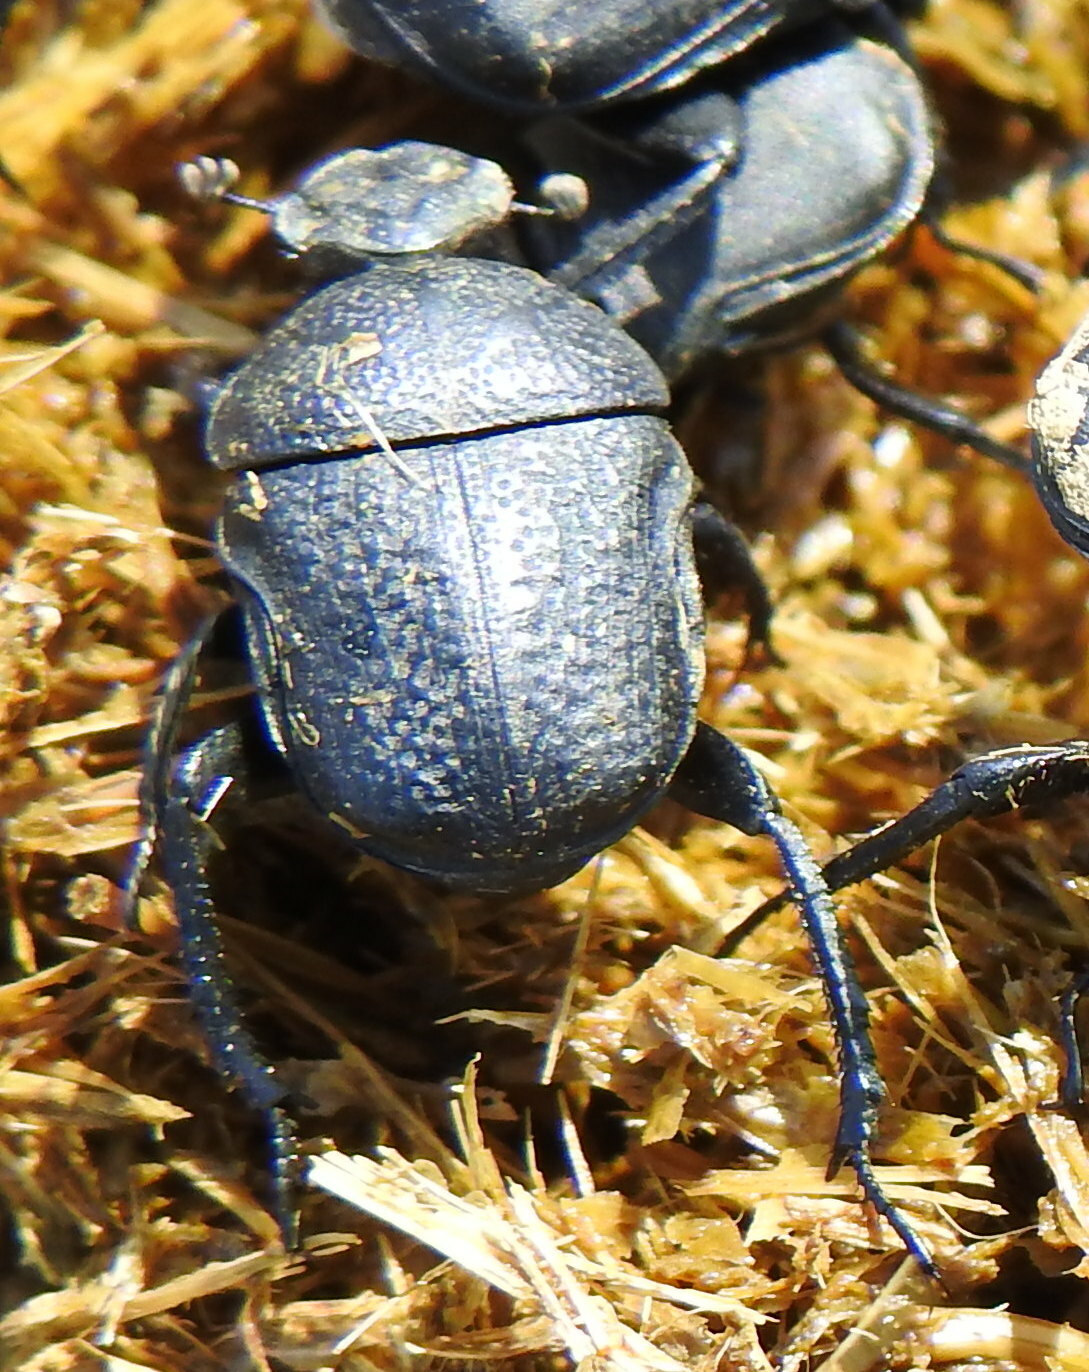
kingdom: Animalia
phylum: Arthropoda
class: Insecta
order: Coleoptera
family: Scarabaeidae
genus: Gymnopleurus
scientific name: Gymnopleurus geoffroyi
